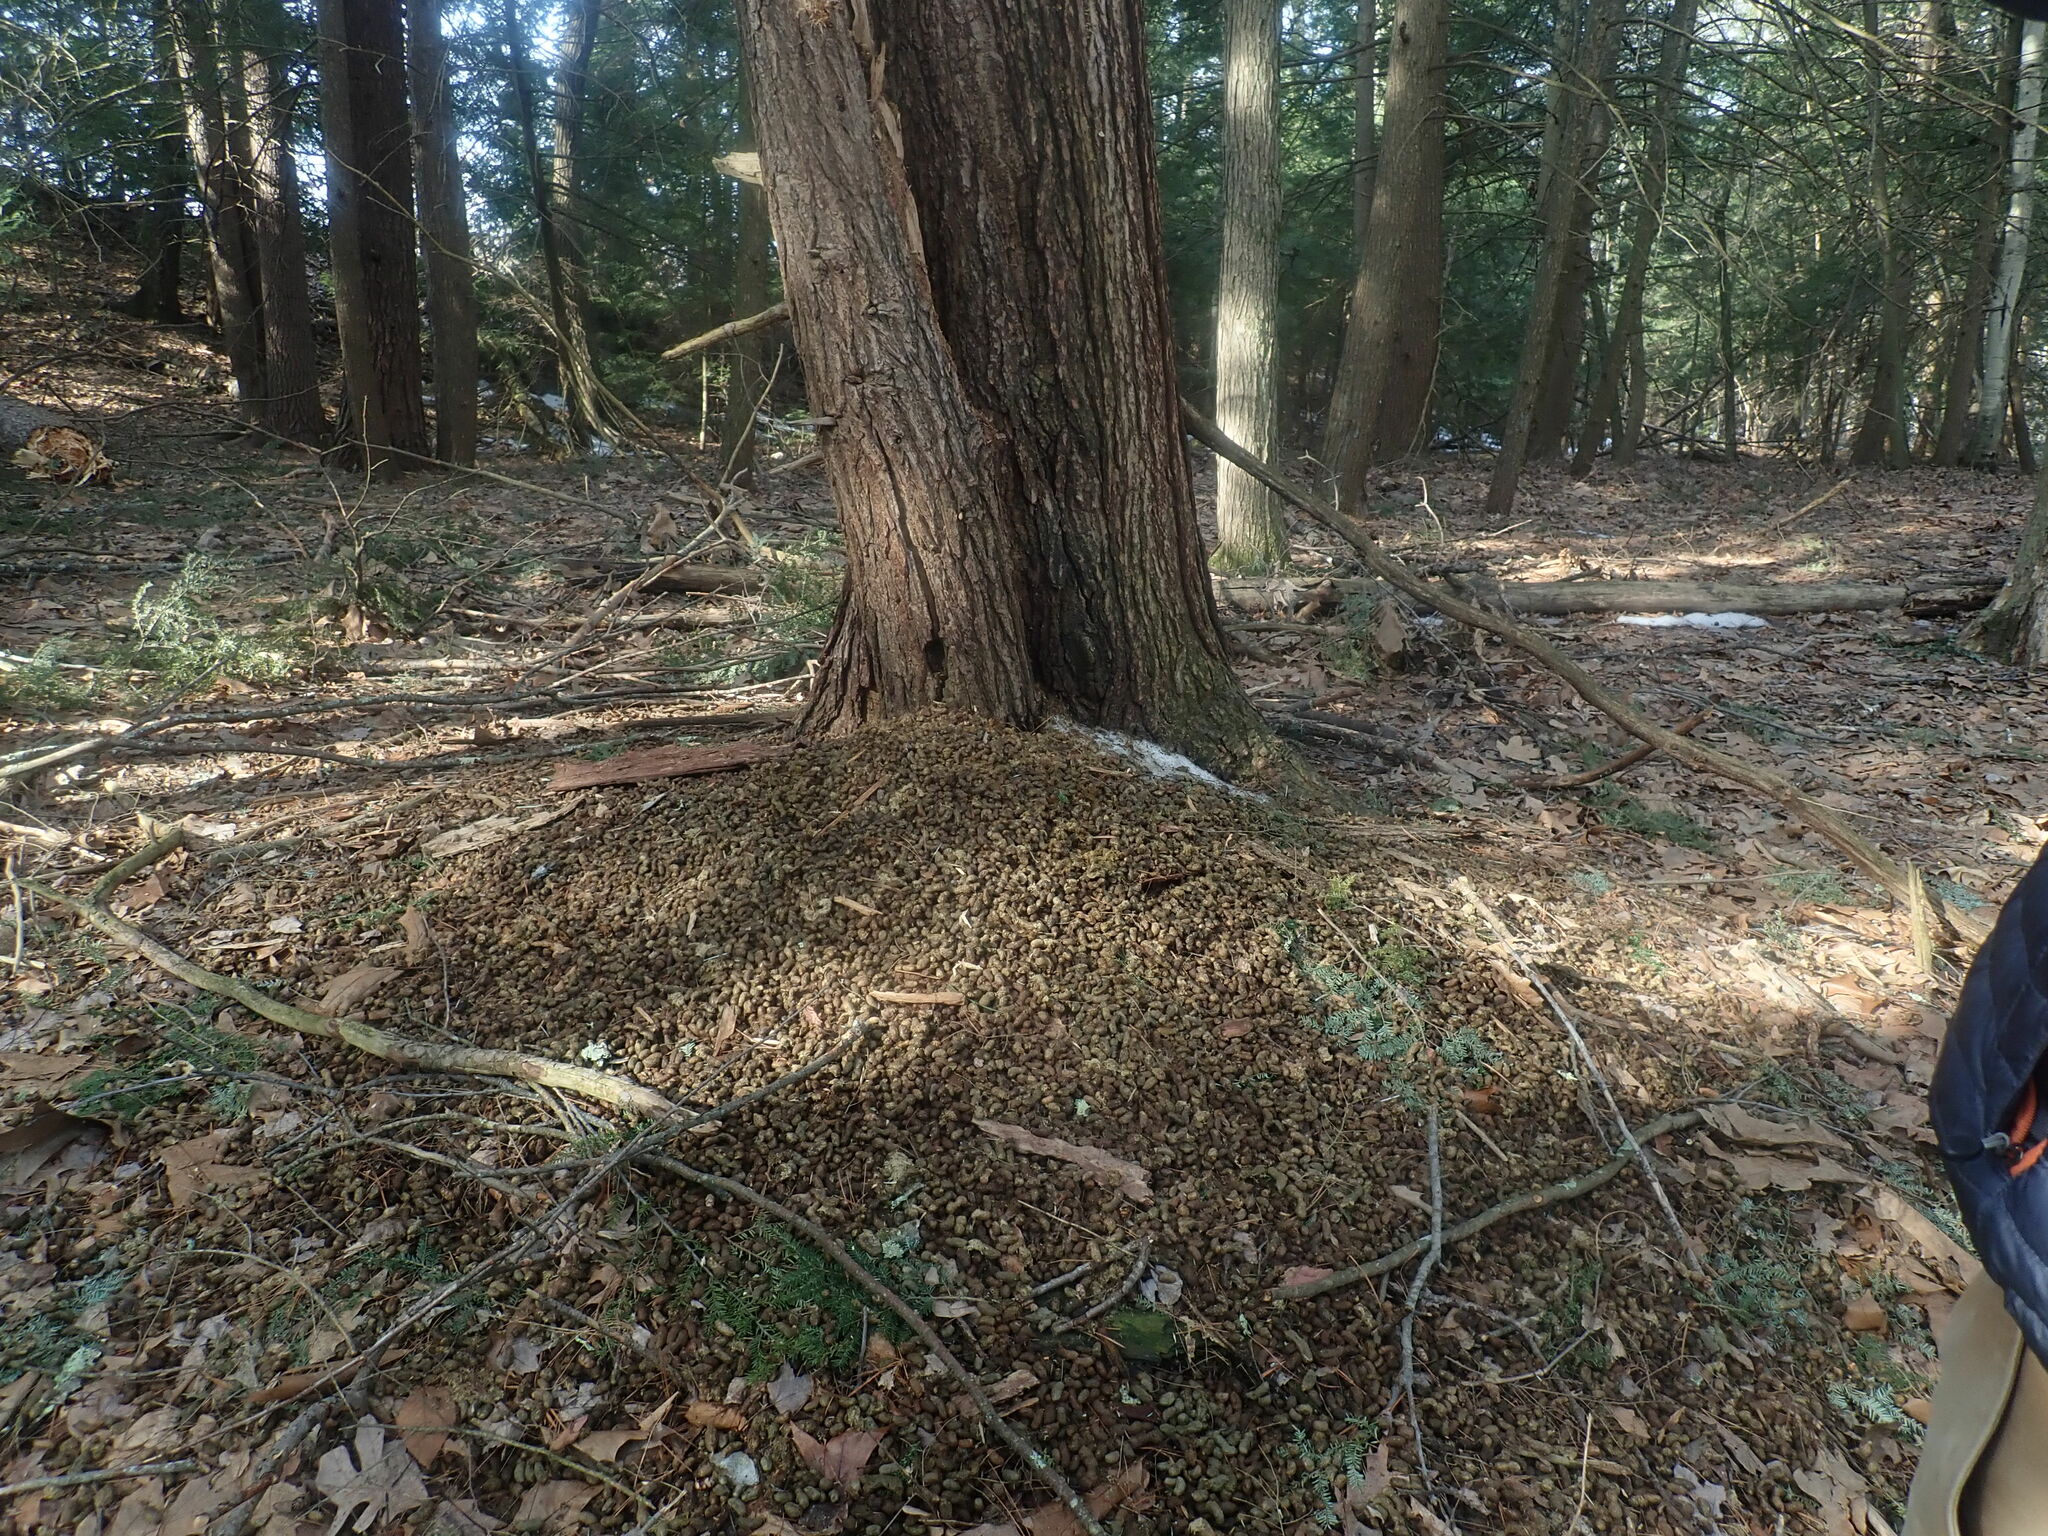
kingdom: Animalia
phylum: Chordata
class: Mammalia
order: Rodentia
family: Erethizontidae
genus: Erethizon
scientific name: Erethizon dorsatus
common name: North american porcupine
